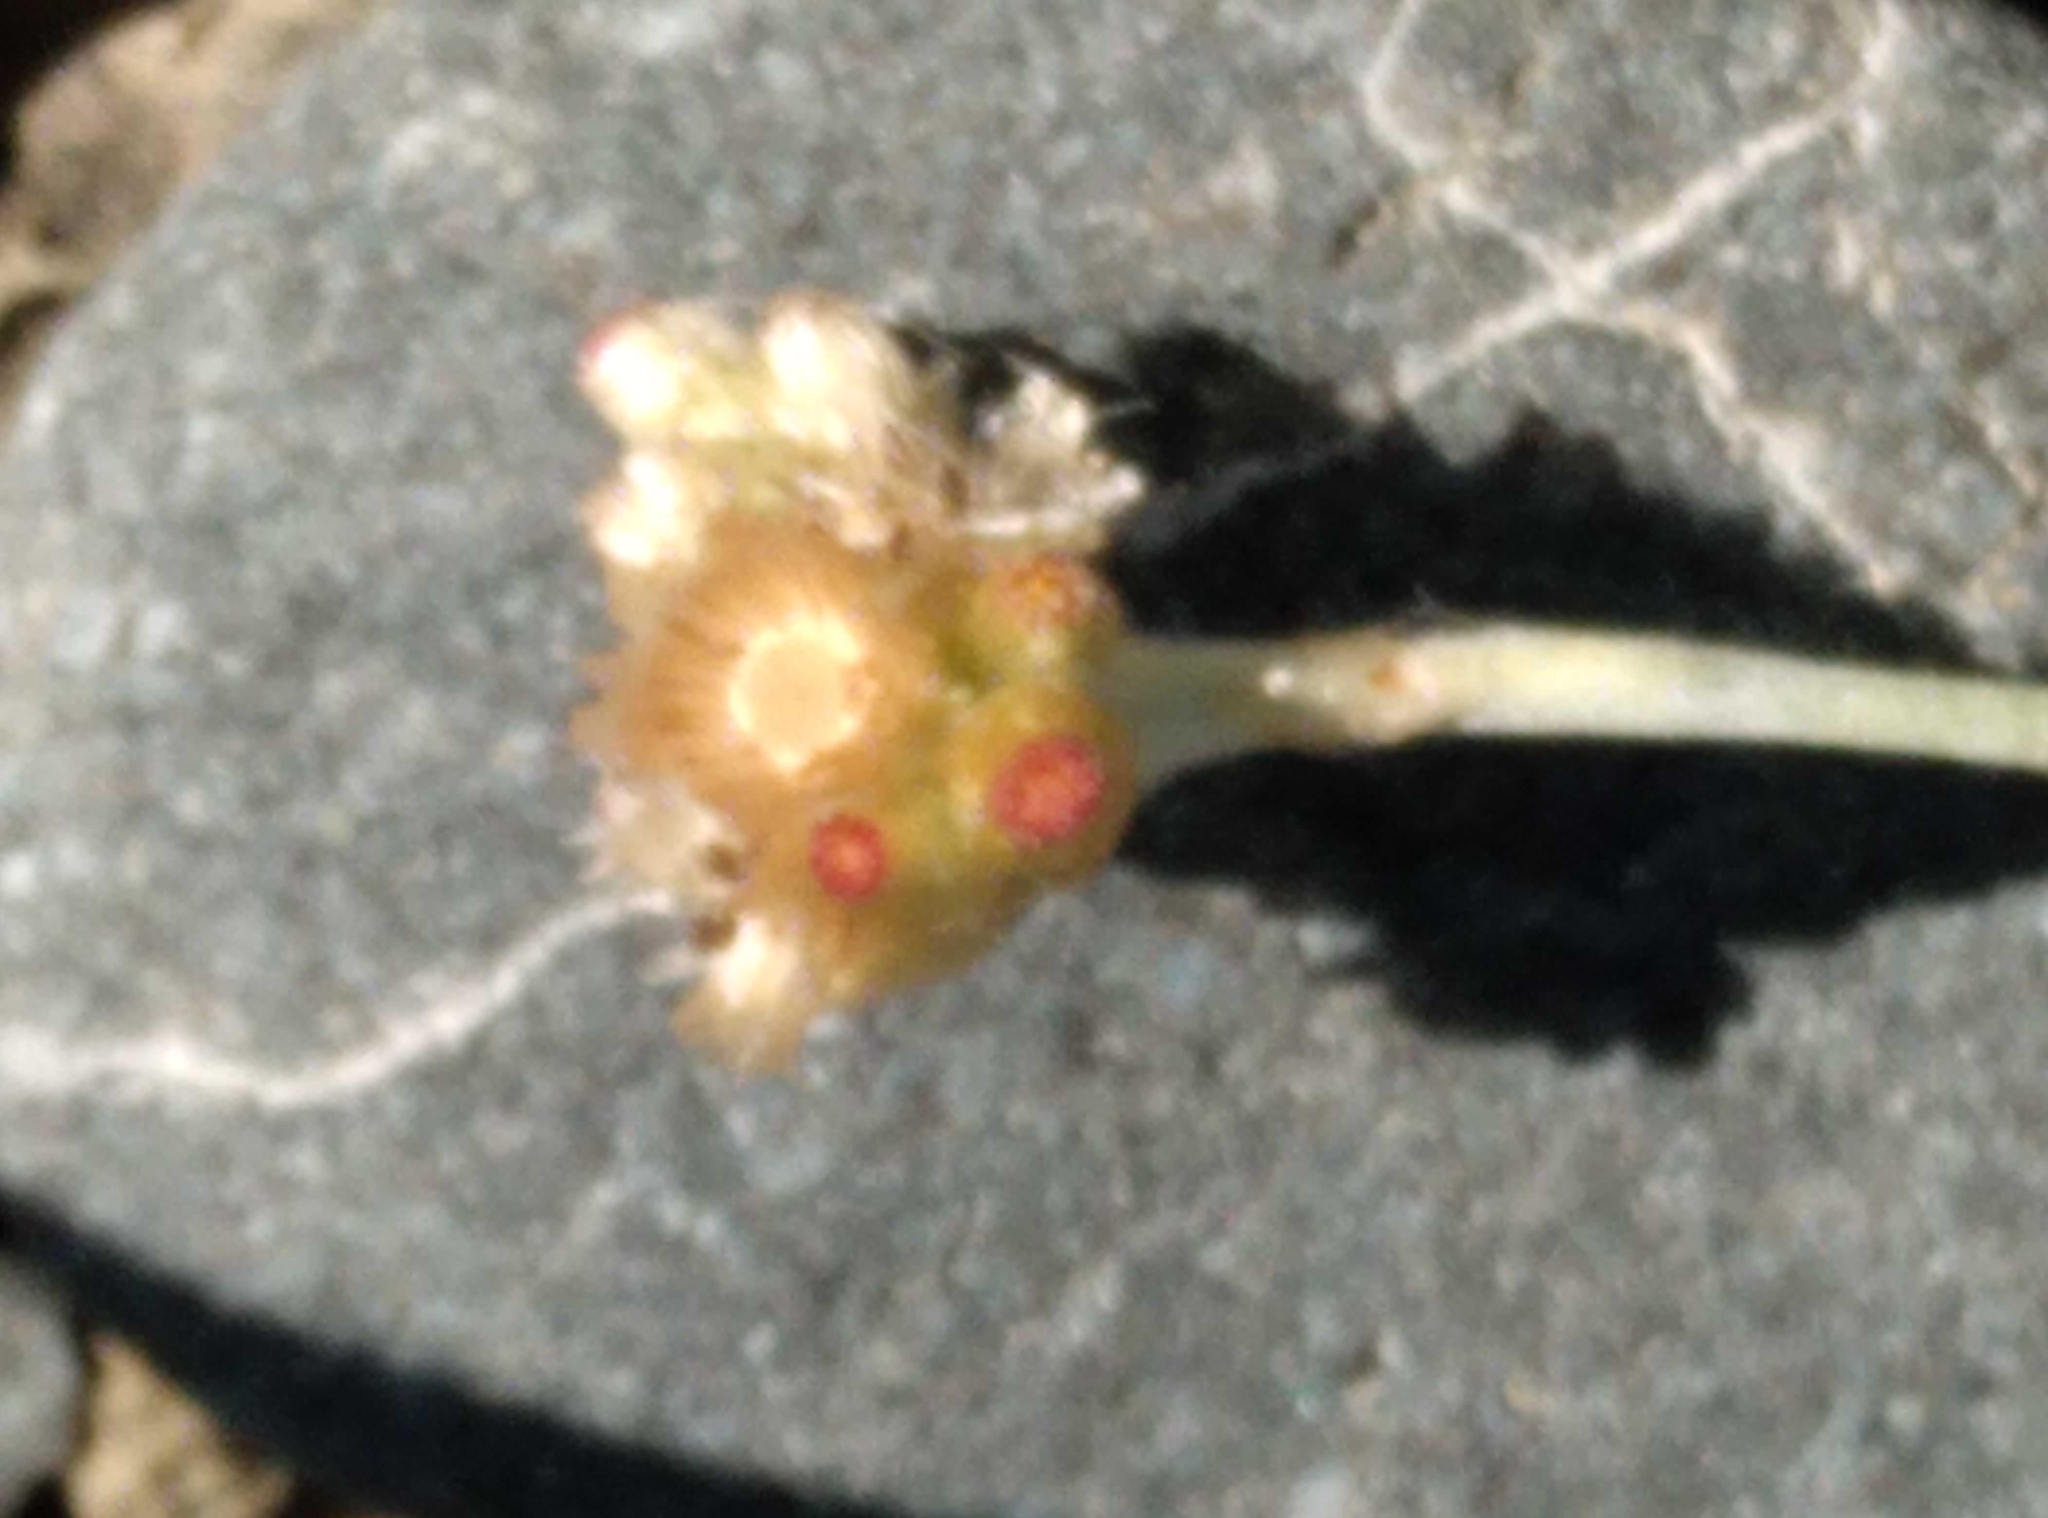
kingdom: Plantae
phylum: Tracheophyta
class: Magnoliopsida
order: Asterales
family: Asteraceae
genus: Helichrysum
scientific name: Helichrysum luteoalbum
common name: Daisy
